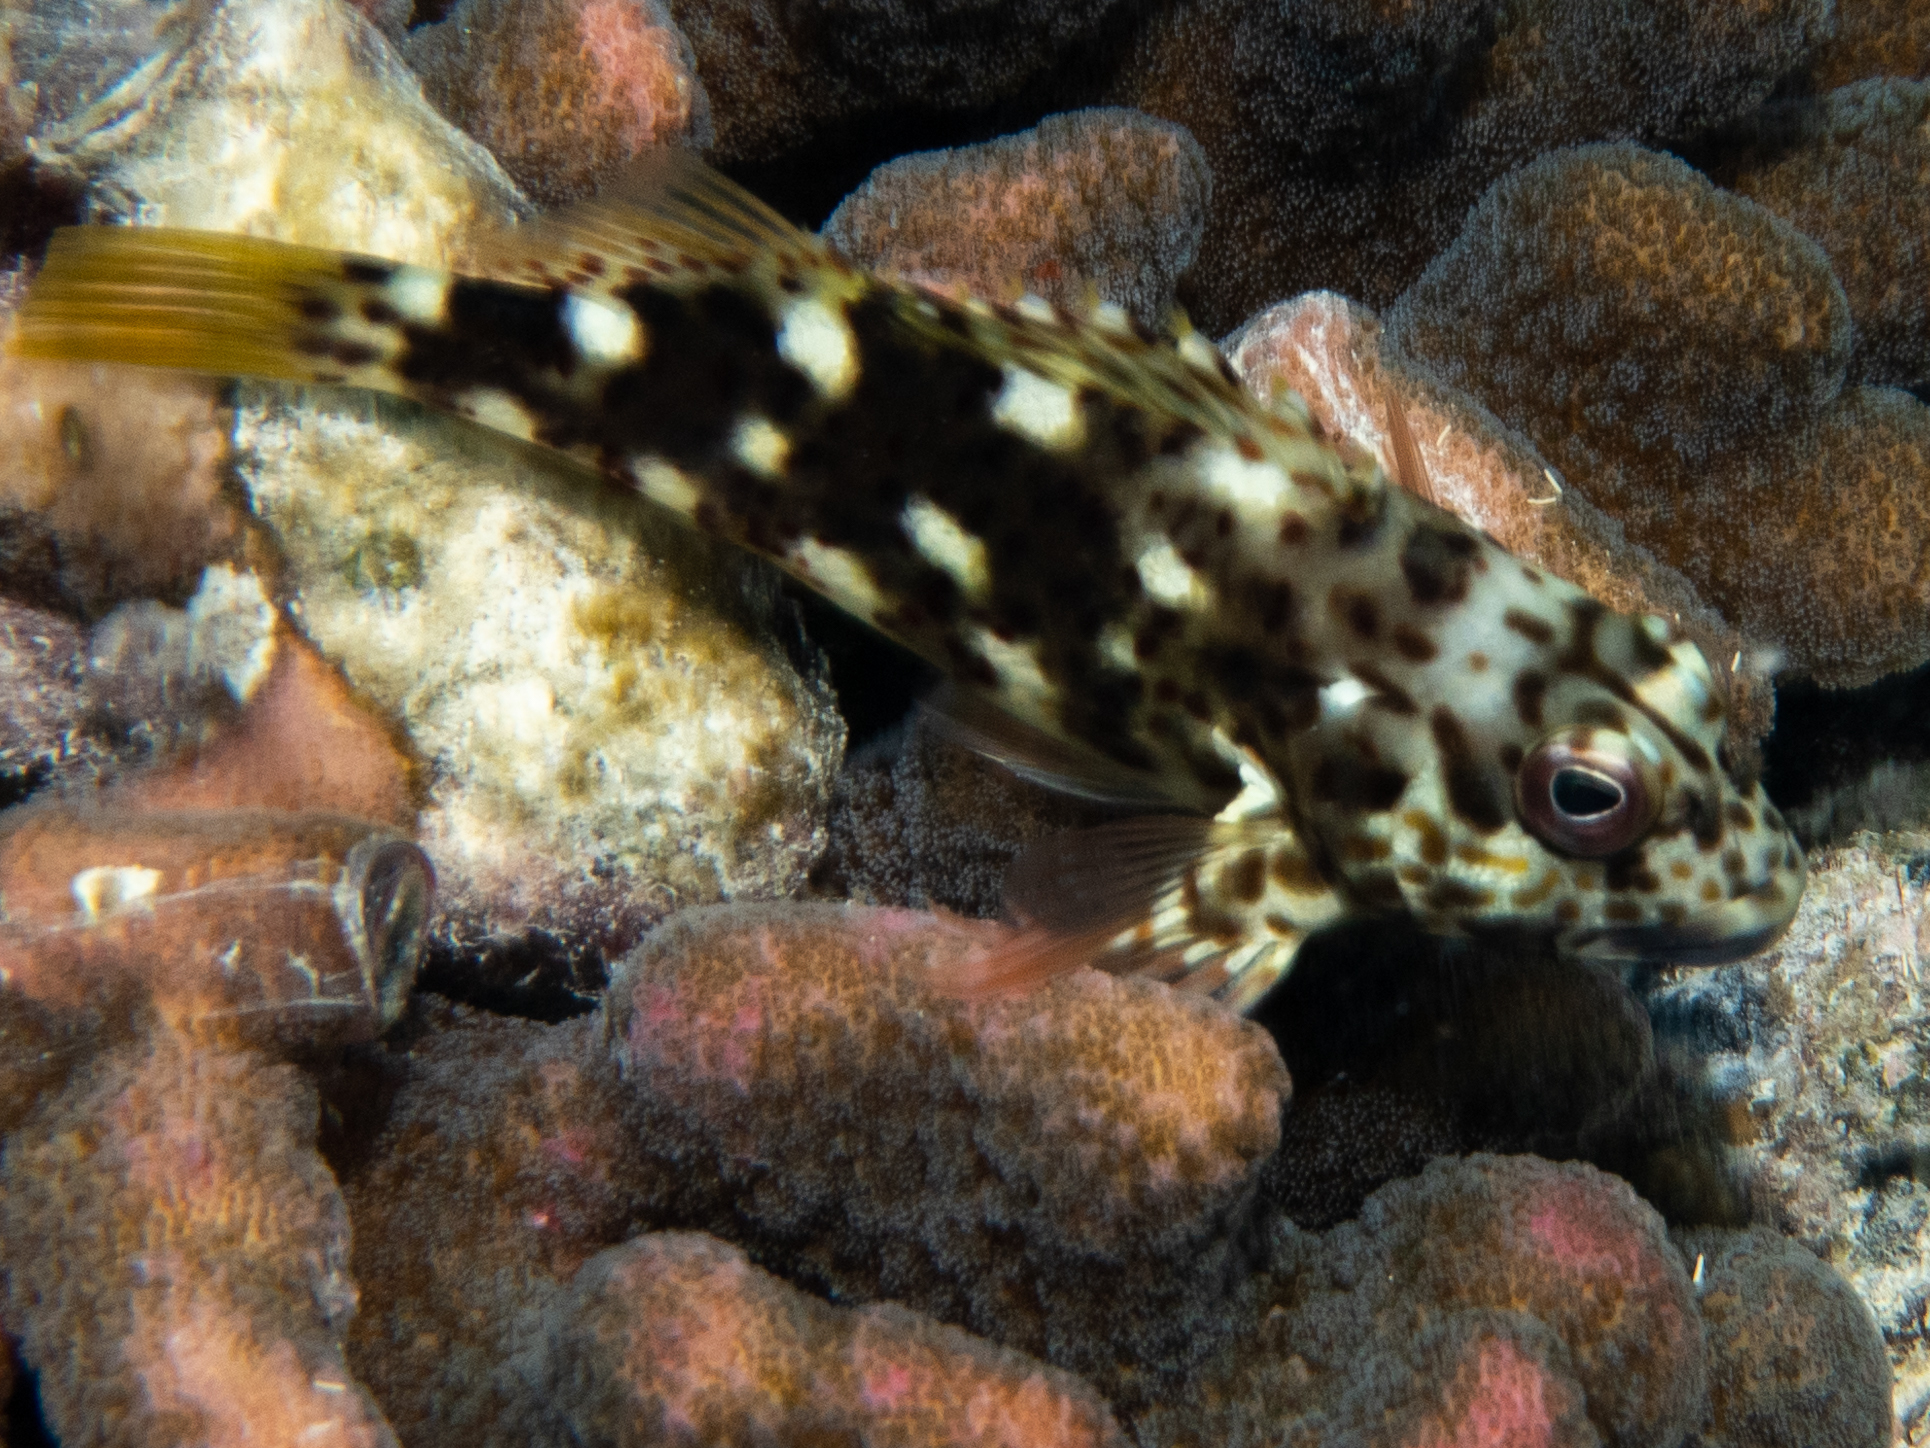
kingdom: Animalia
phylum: Chordata
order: Perciformes
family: Cirrhitidae
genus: Cirrhitus
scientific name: Cirrhitus pinnulatus
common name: Stocky hawkfish
